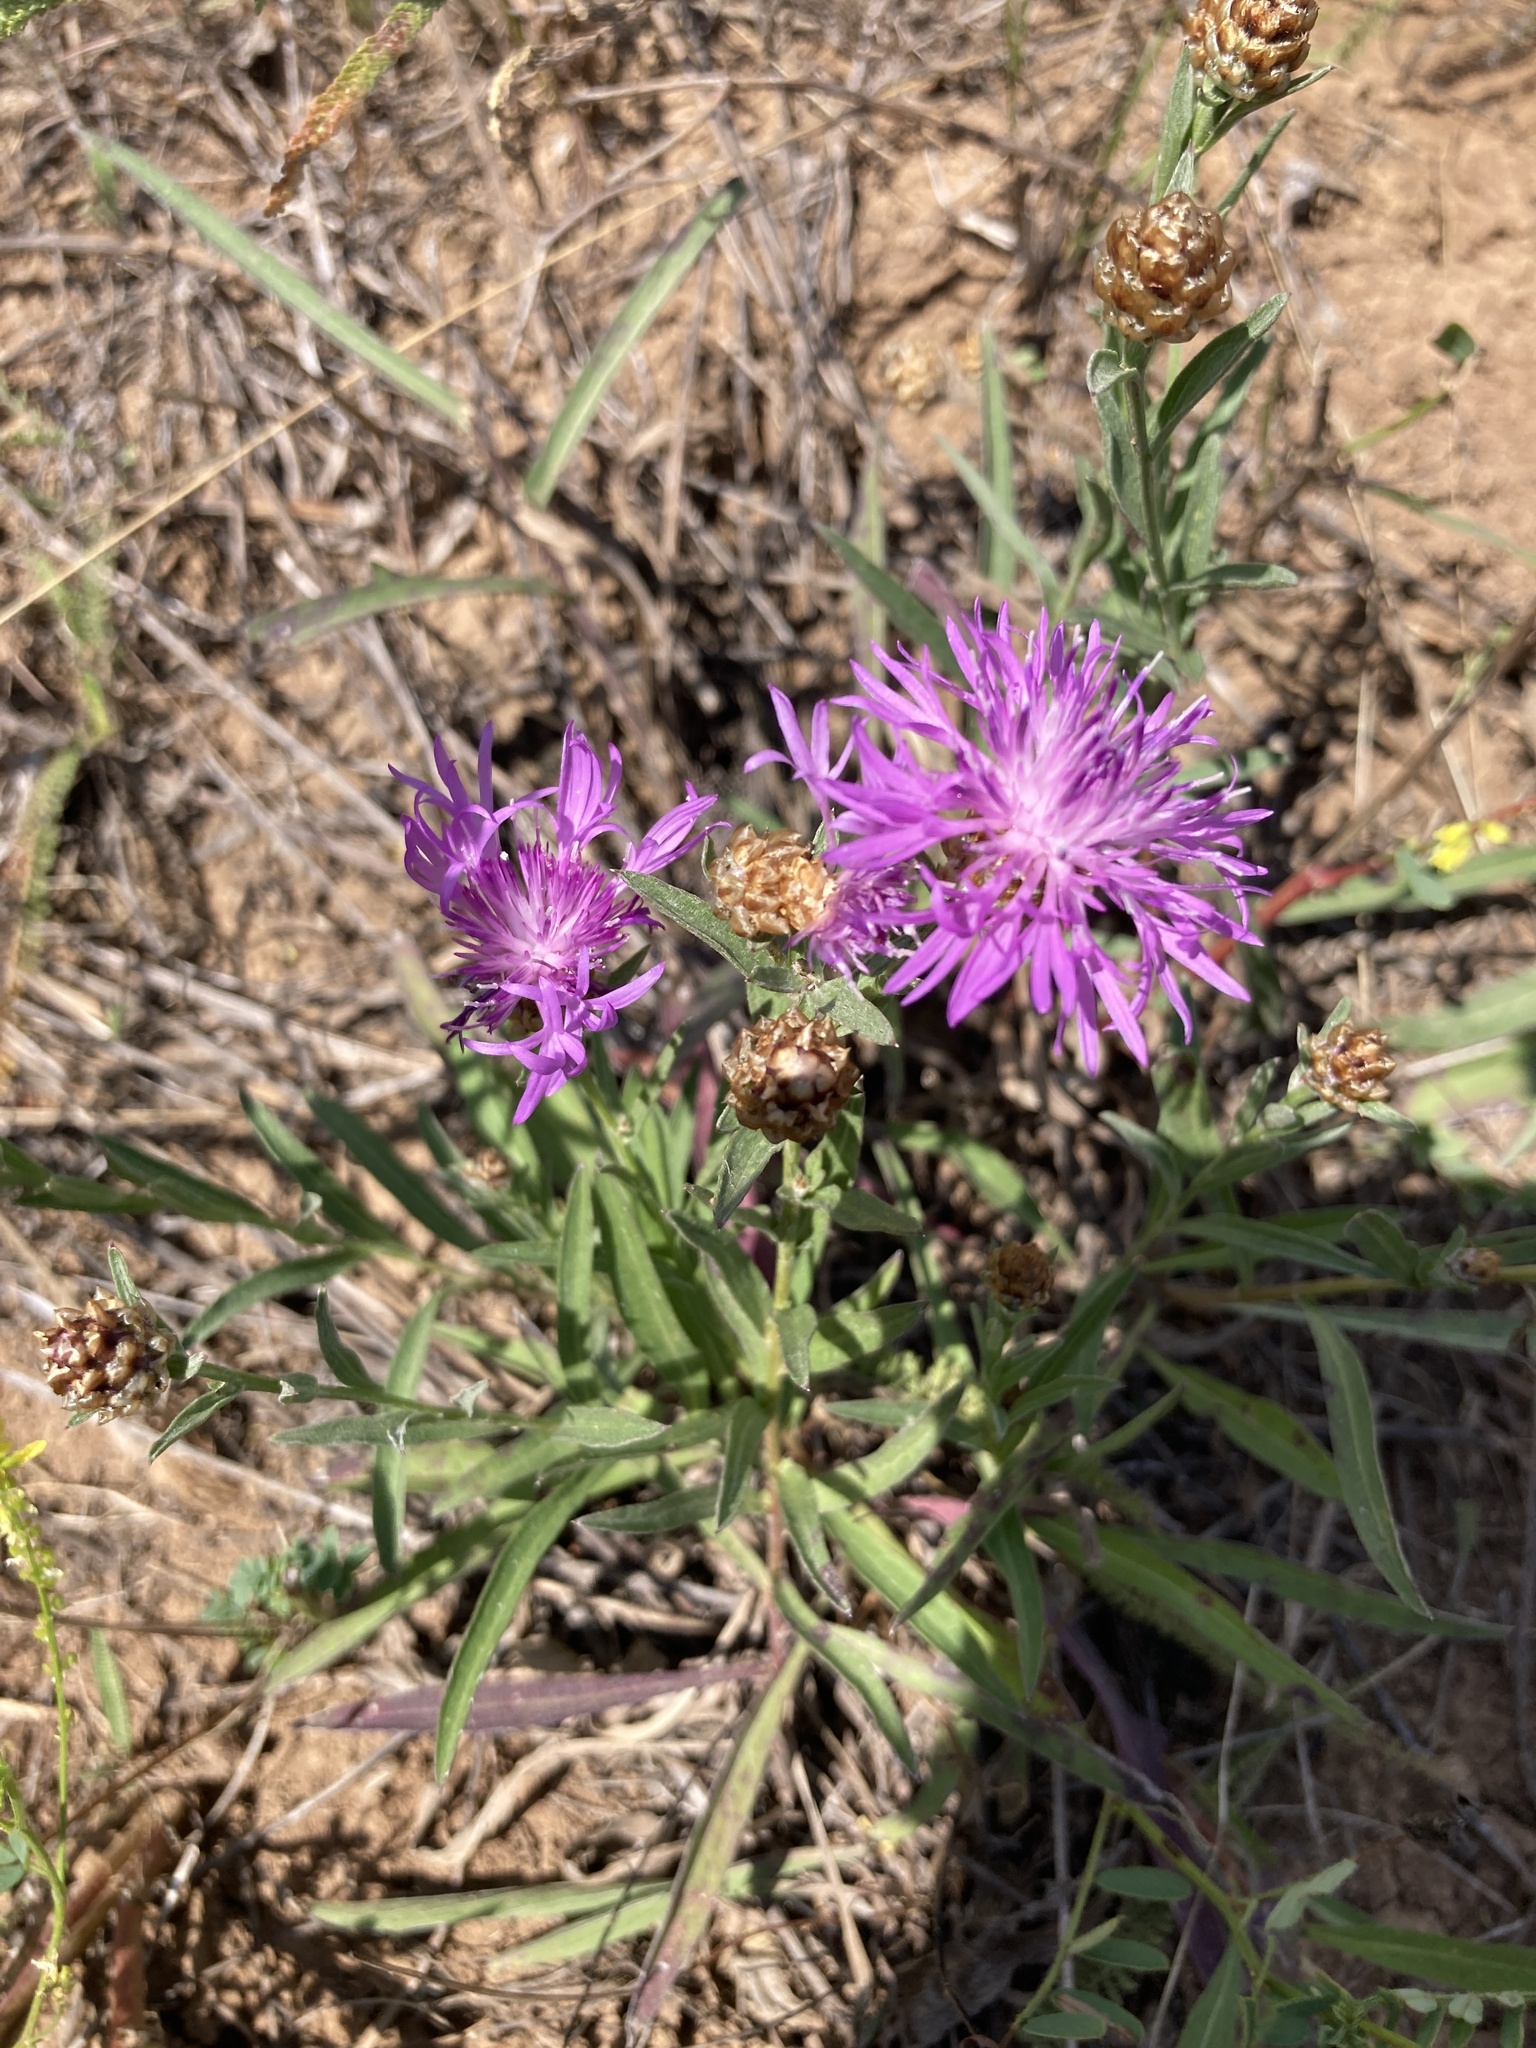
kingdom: Plantae
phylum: Tracheophyta
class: Magnoliopsida
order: Asterales
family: Asteraceae
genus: Centaurea
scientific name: Centaurea jacea
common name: Brown knapweed
